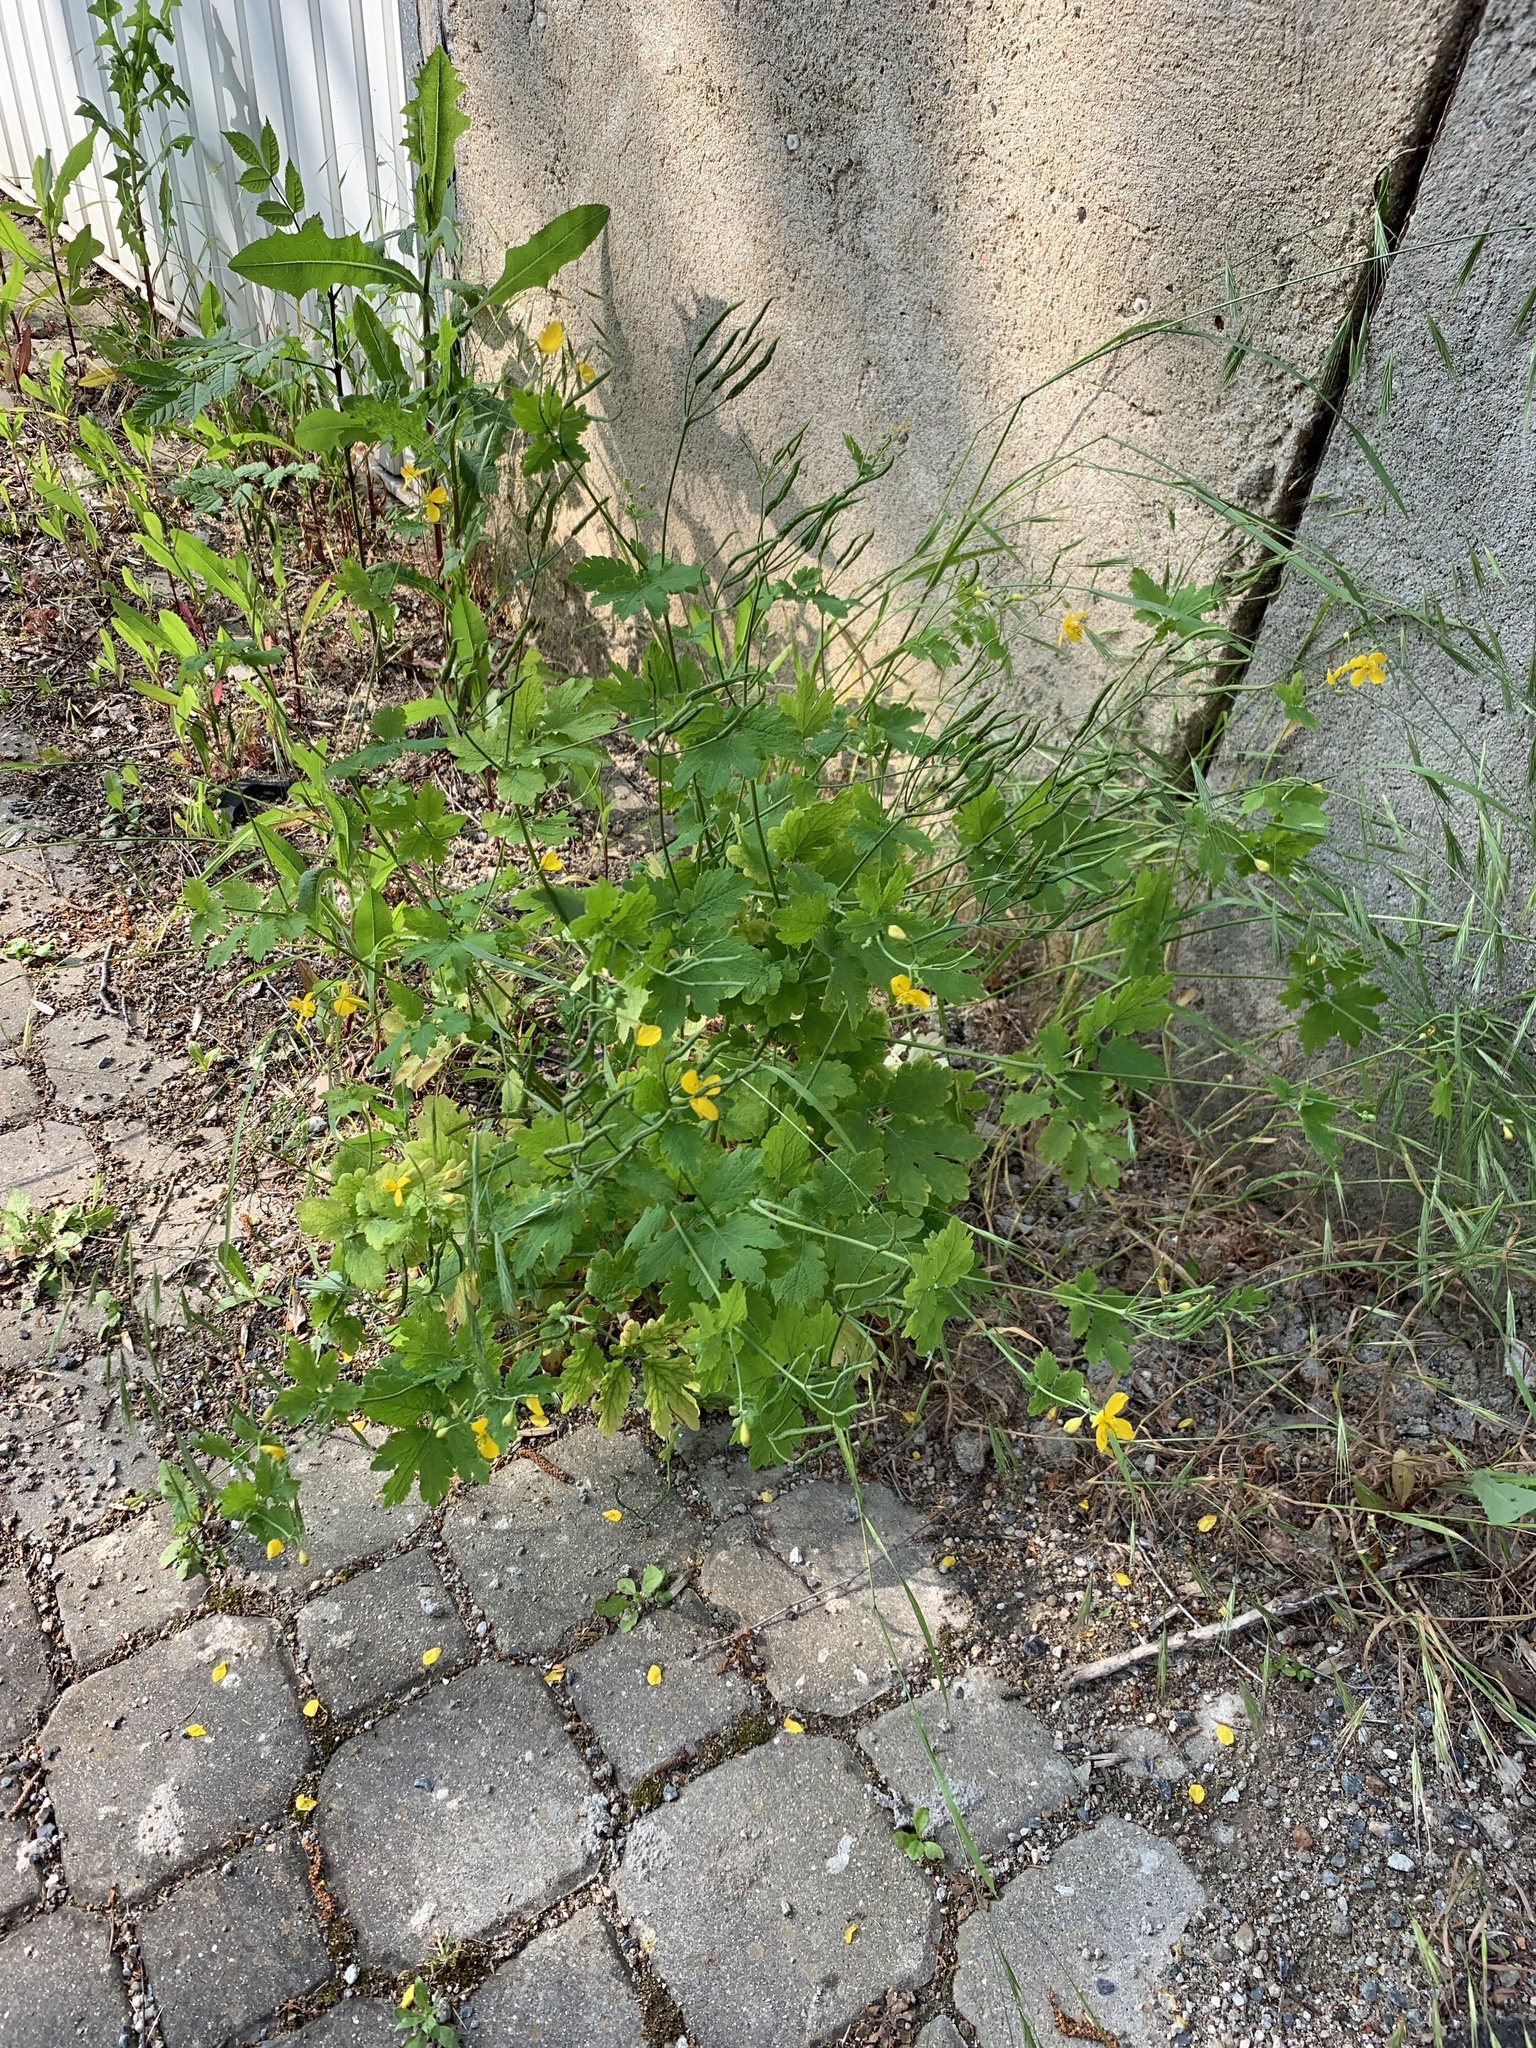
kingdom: Plantae
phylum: Tracheophyta
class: Magnoliopsida
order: Ranunculales
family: Papaveraceae
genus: Chelidonium
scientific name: Chelidonium majus
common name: Greater celandine
